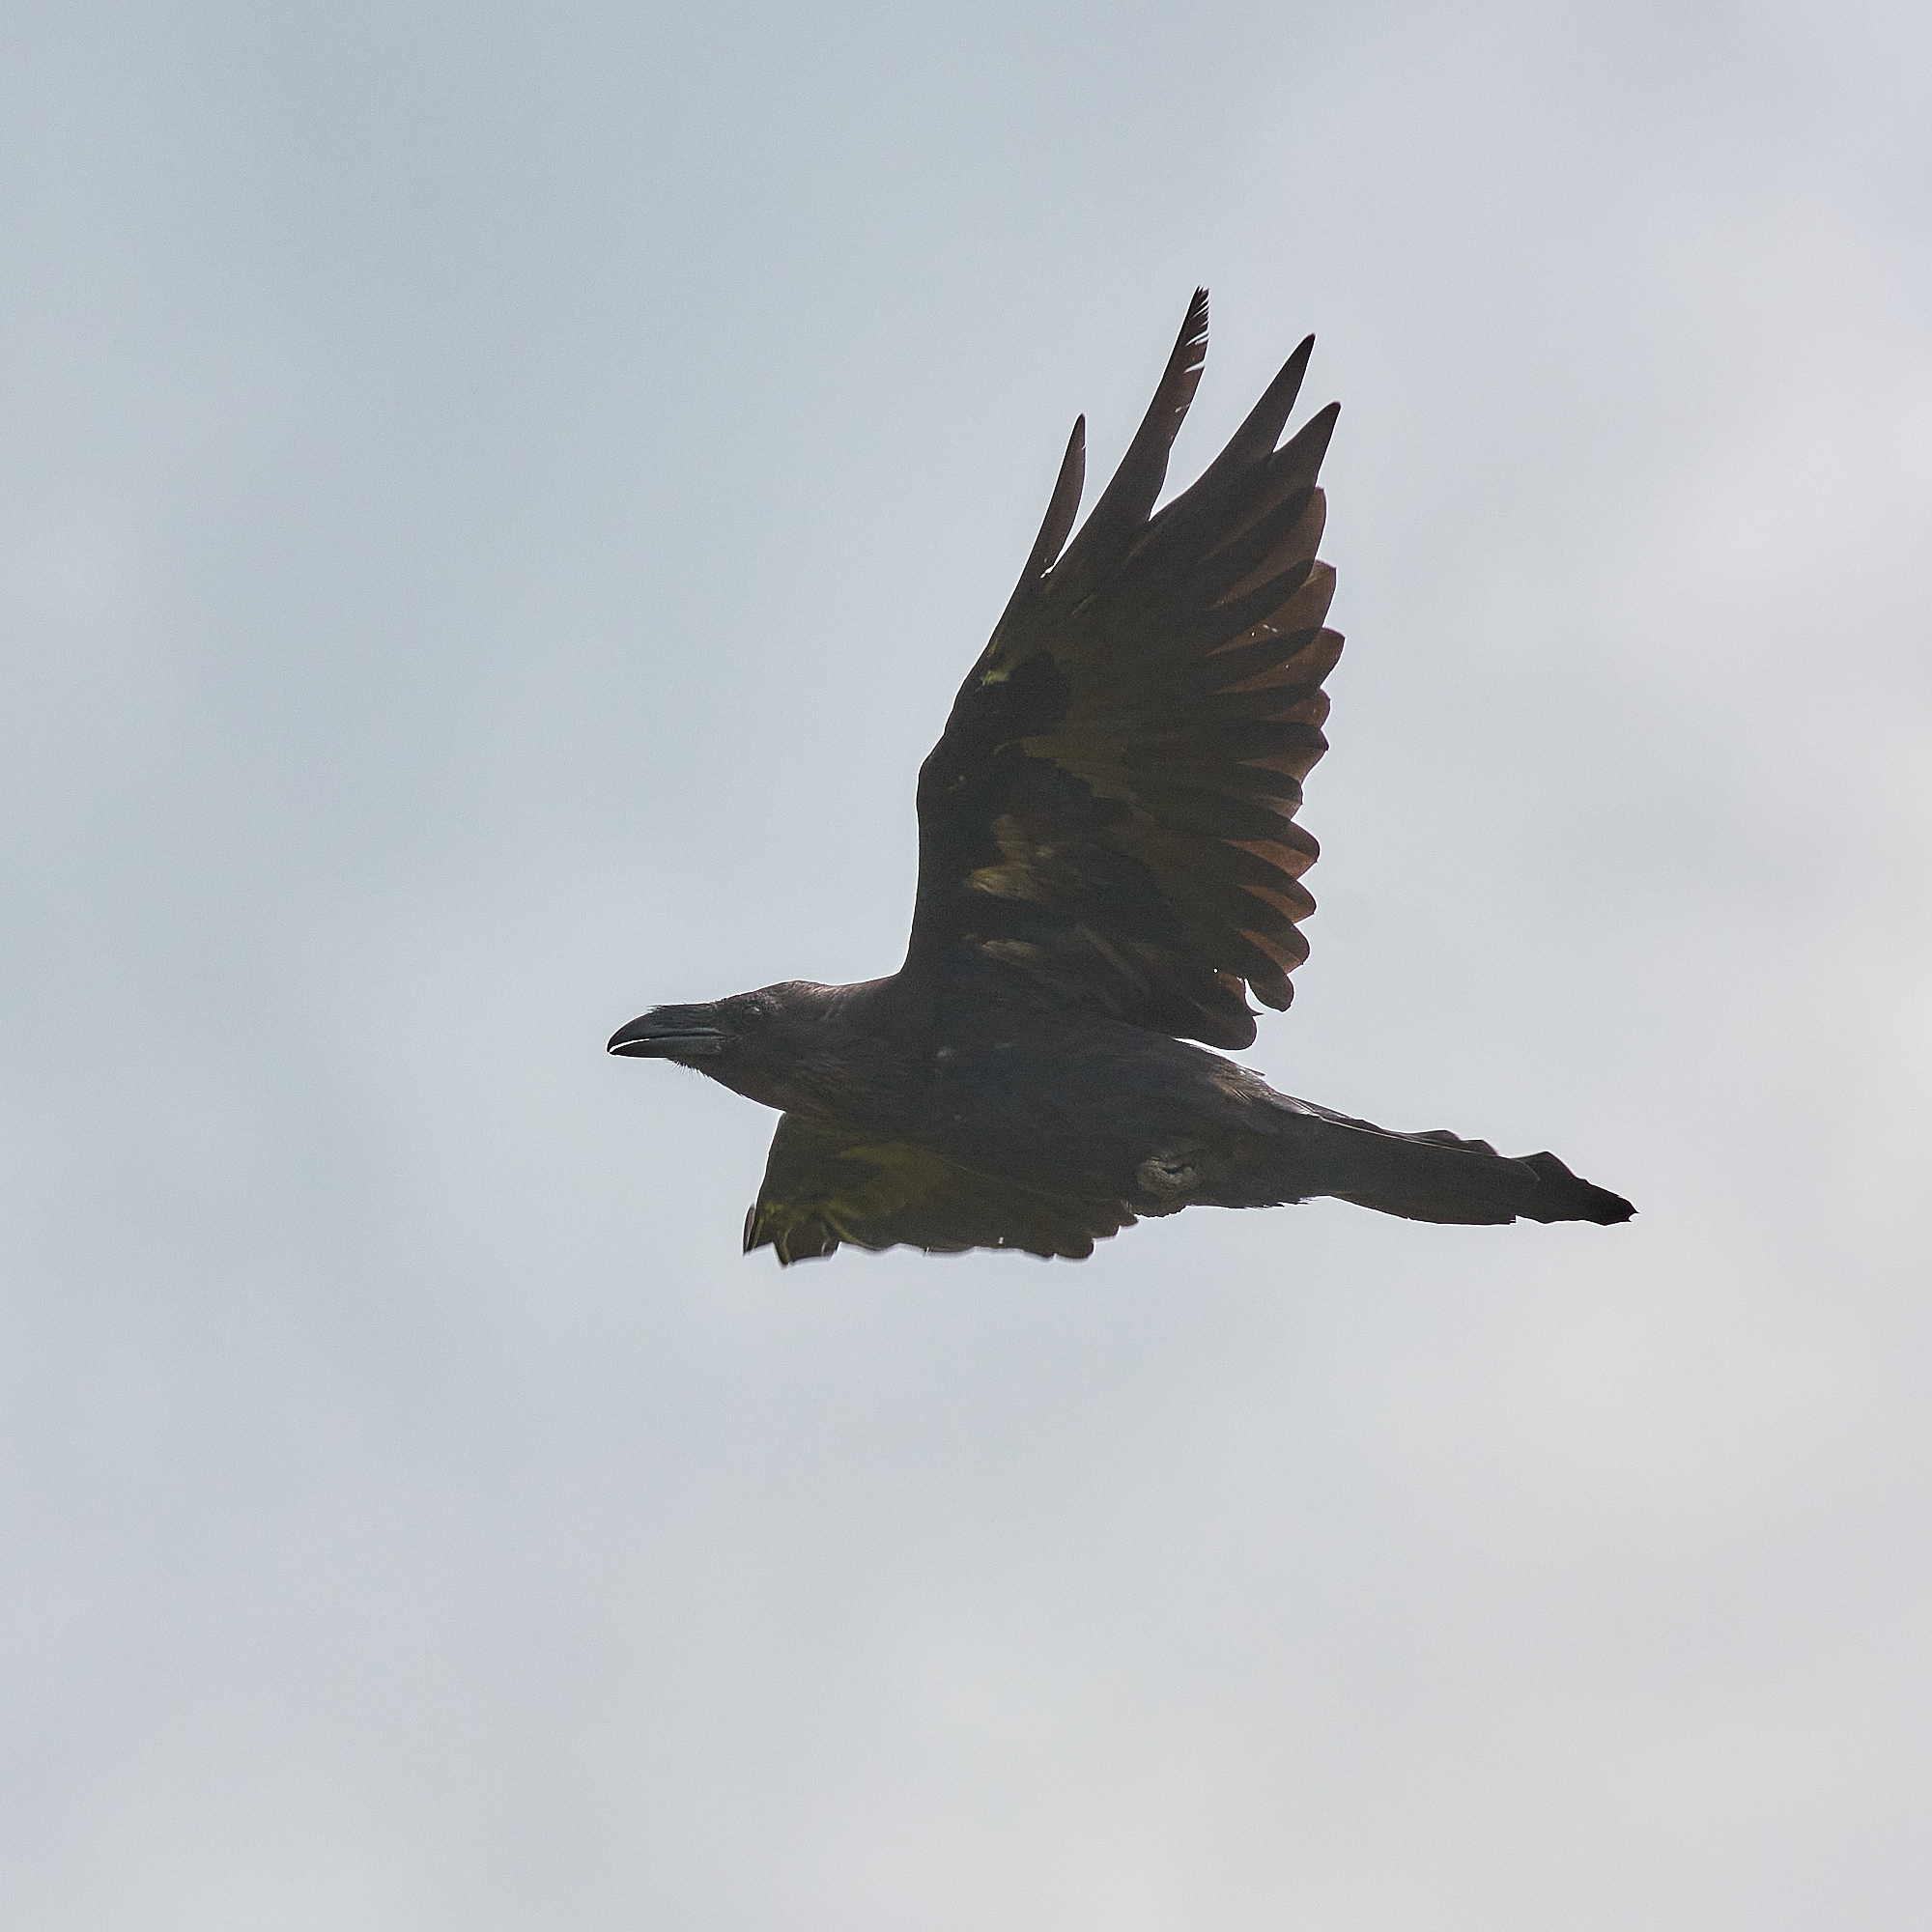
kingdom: Animalia
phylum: Chordata
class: Aves
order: Passeriformes
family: Corvidae
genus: Corvus
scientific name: Corvus corax
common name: Common raven
